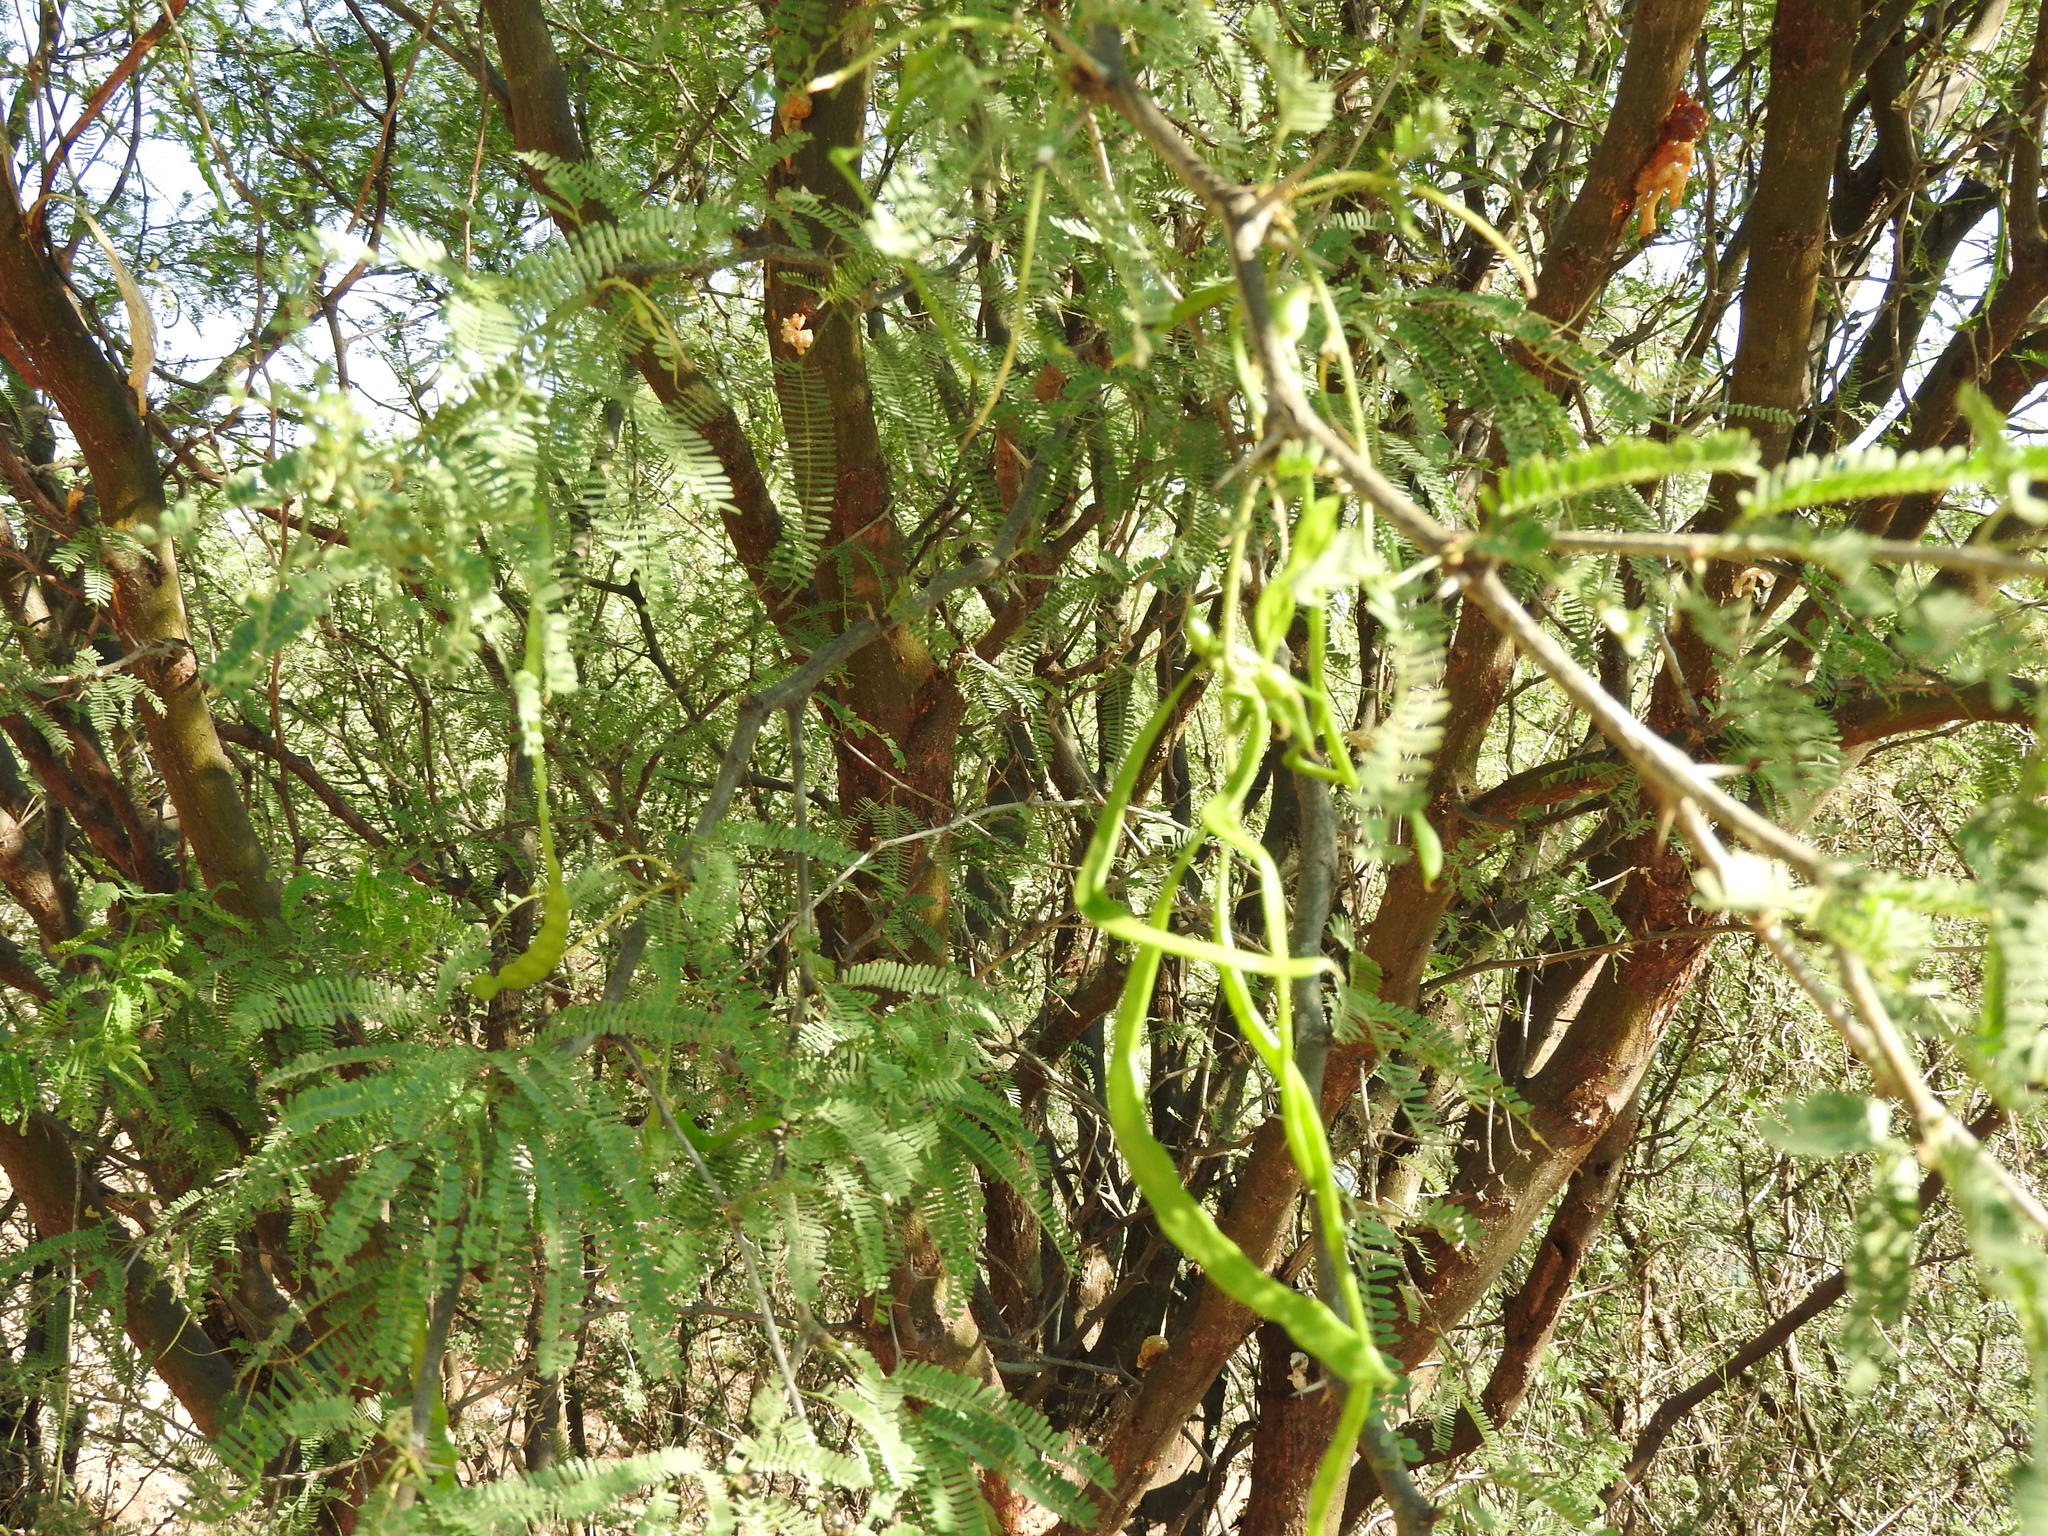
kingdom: Plantae
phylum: Tracheophyta
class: Magnoliopsida
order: Fabales
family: Fabaceae
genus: Prosopis
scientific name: Prosopis laevigata
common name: Smooth mesquite
